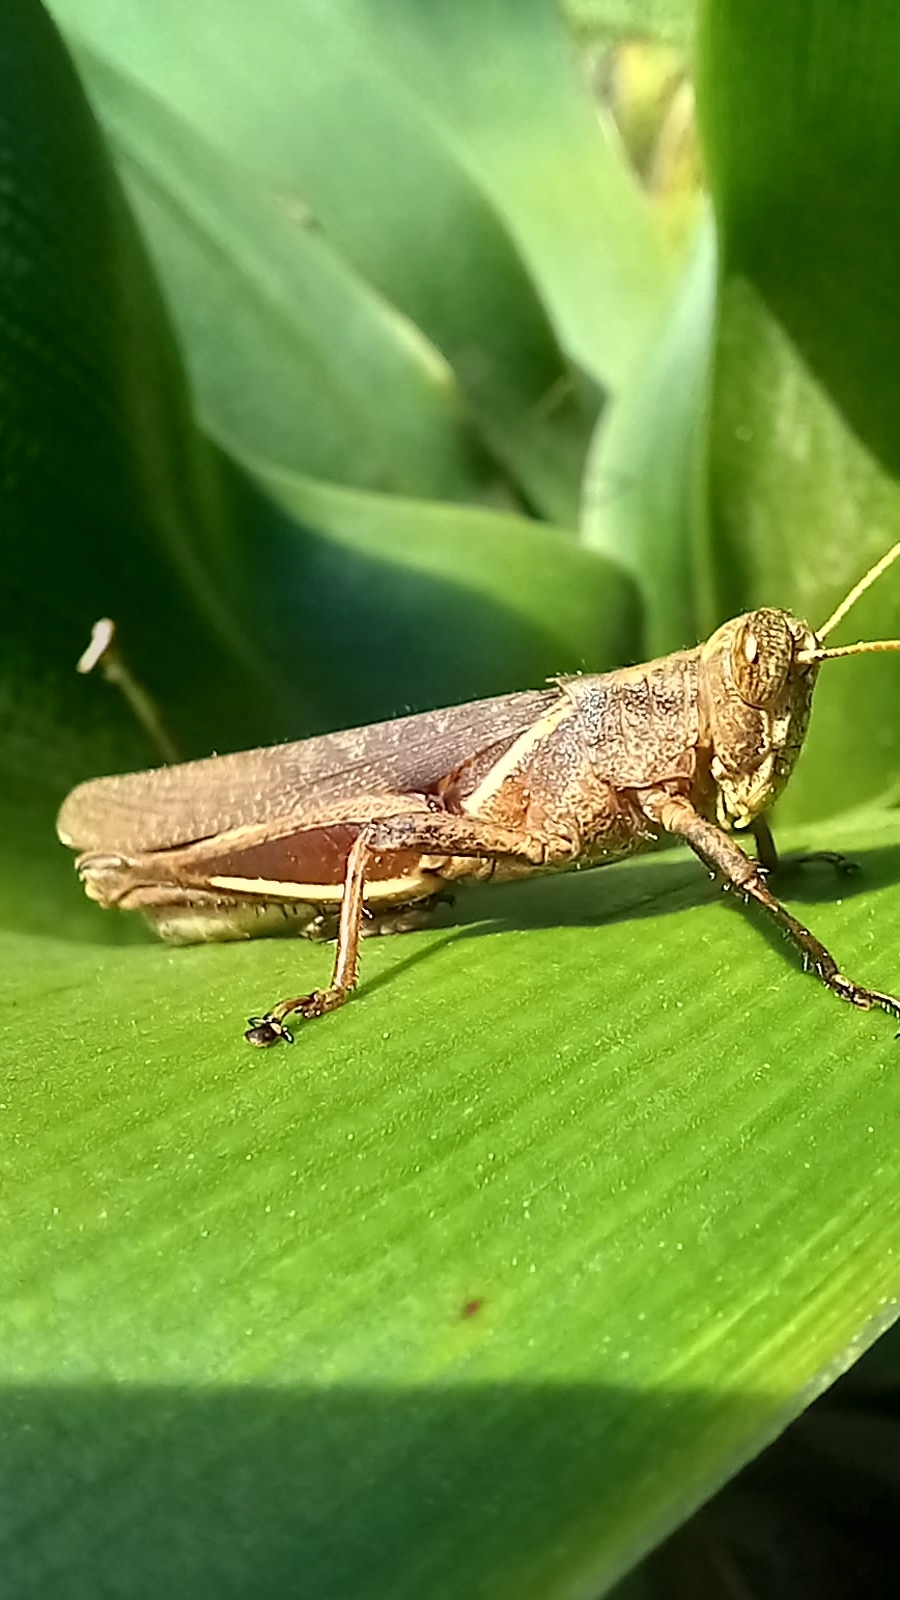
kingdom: Animalia
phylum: Arthropoda
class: Insecta
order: Orthoptera
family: Acrididae
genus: Abracris
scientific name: Abracris flavolineata
